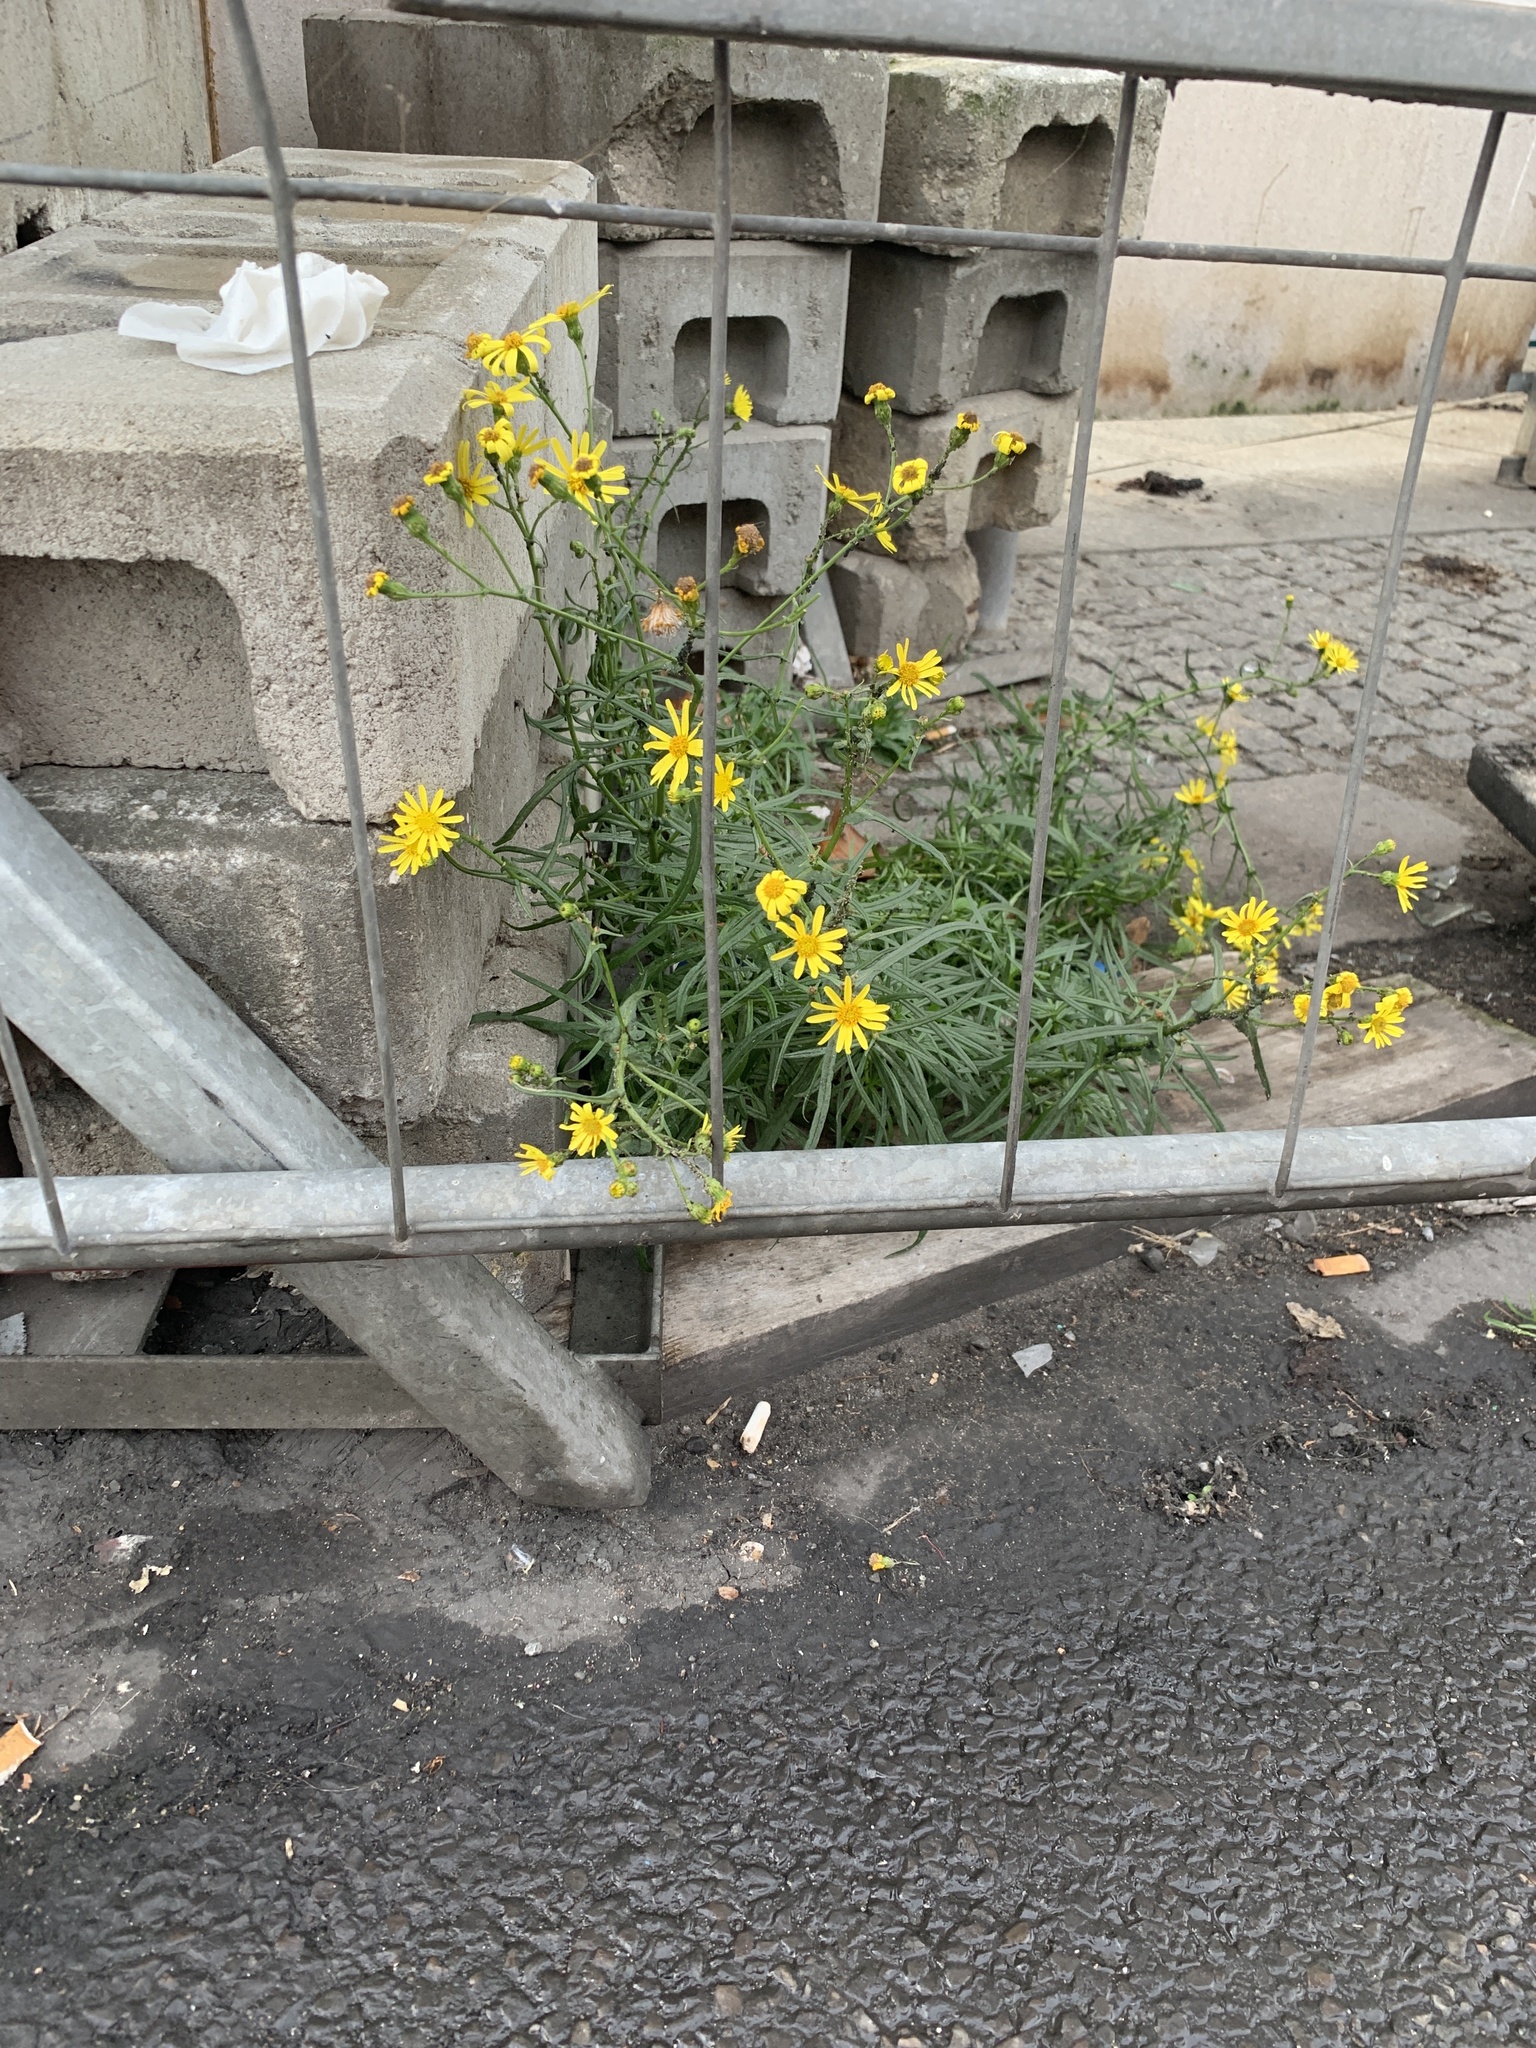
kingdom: Plantae
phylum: Tracheophyta
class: Magnoliopsida
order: Asterales
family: Asteraceae
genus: Senecio
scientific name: Senecio inaequidens
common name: Narrow-leaved ragwort
